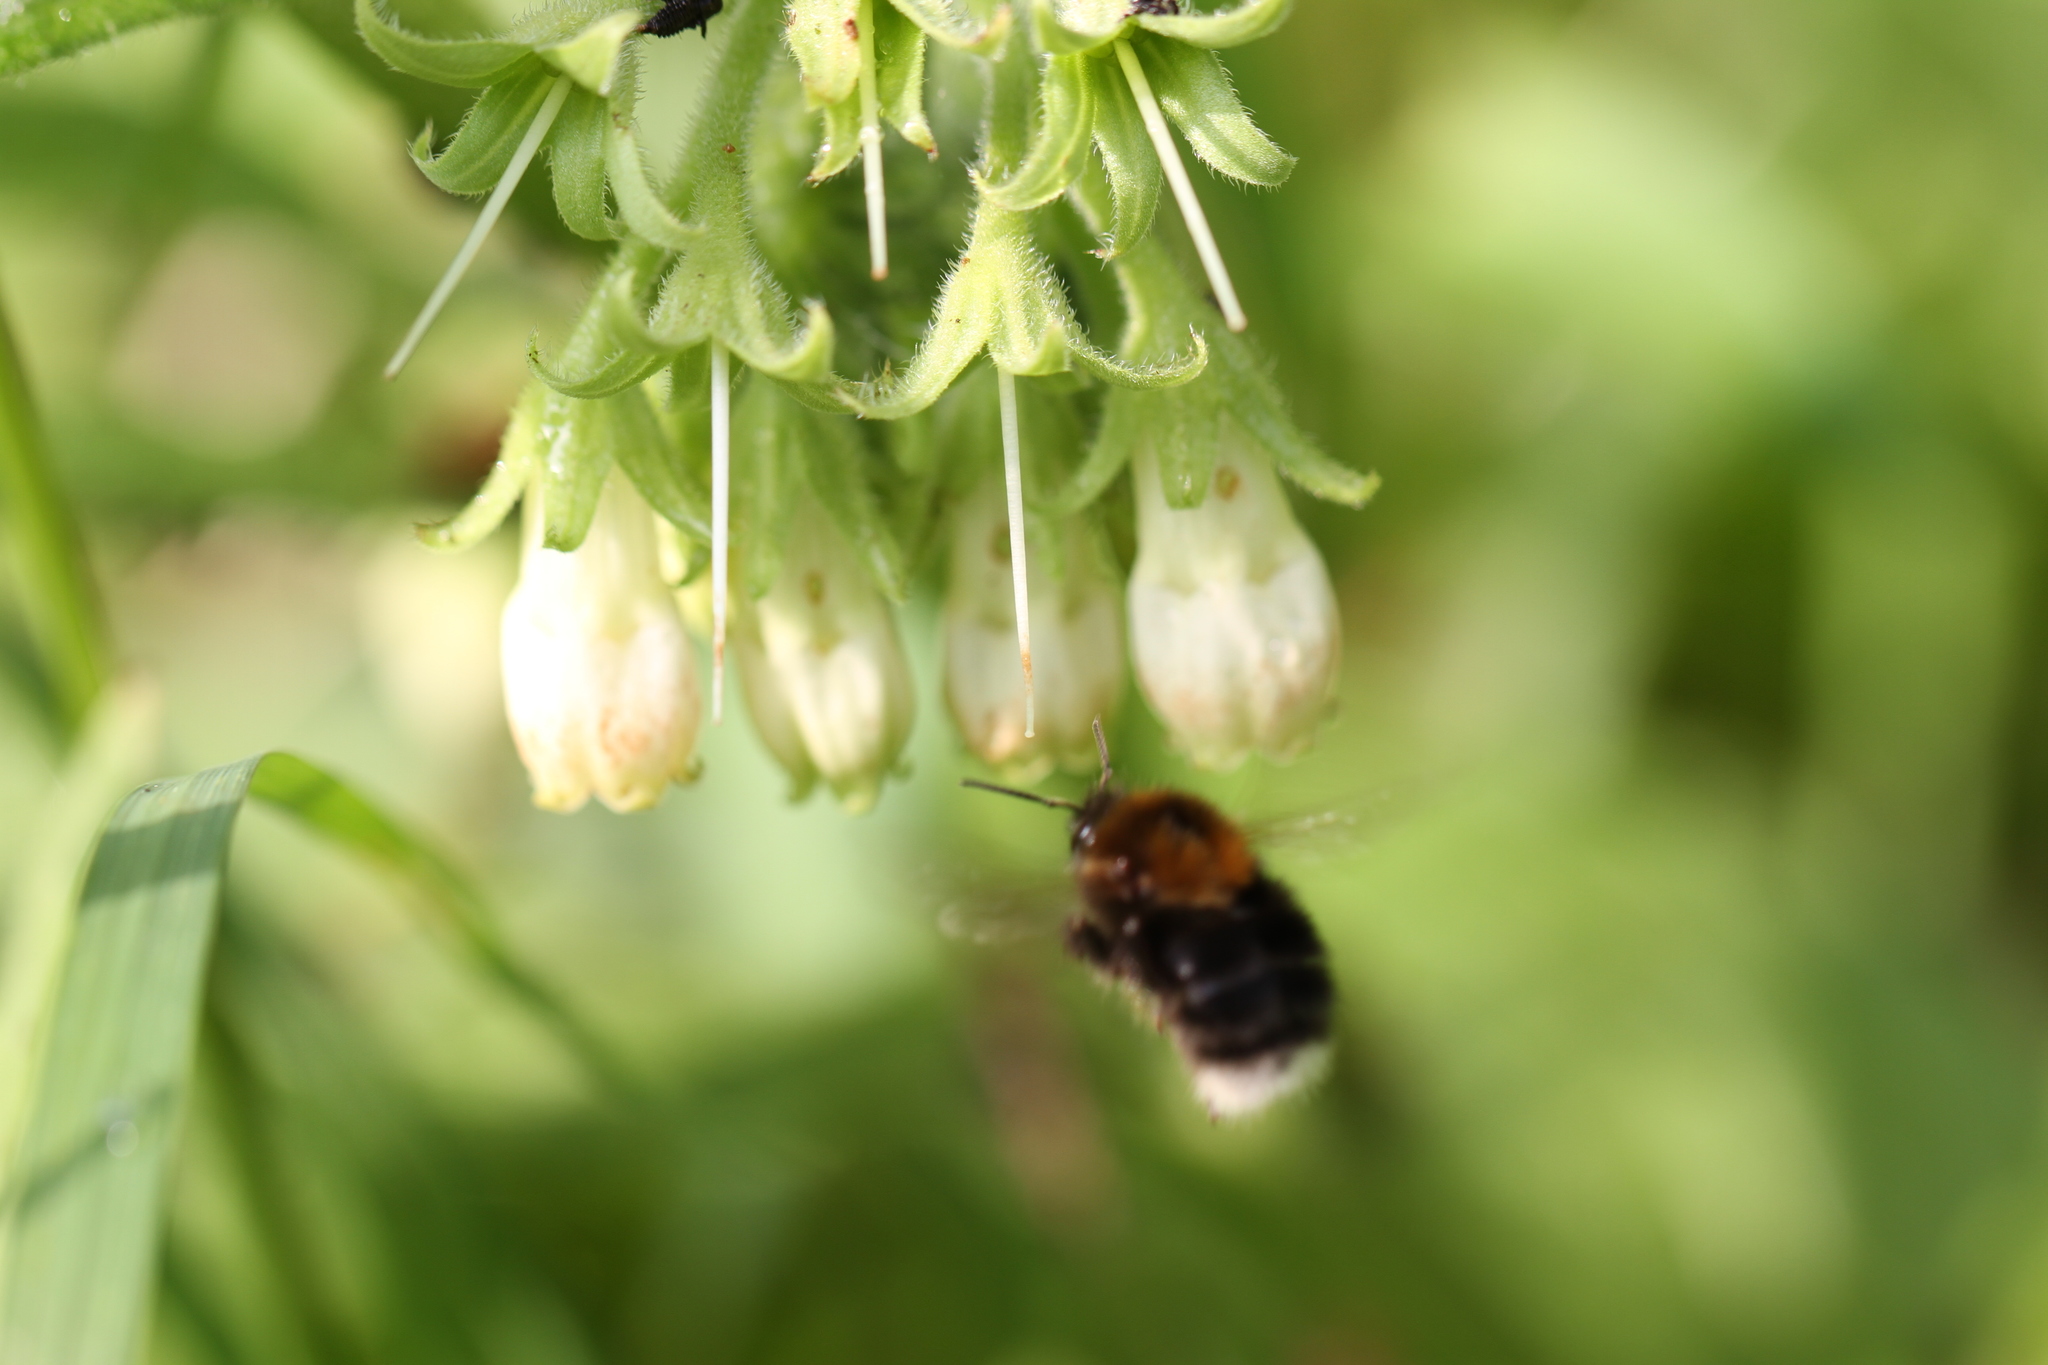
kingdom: Animalia
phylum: Arthropoda
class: Insecta
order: Hymenoptera
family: Apidae
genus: Bombus
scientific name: Bombus hypnorum
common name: New garden bumblebee
